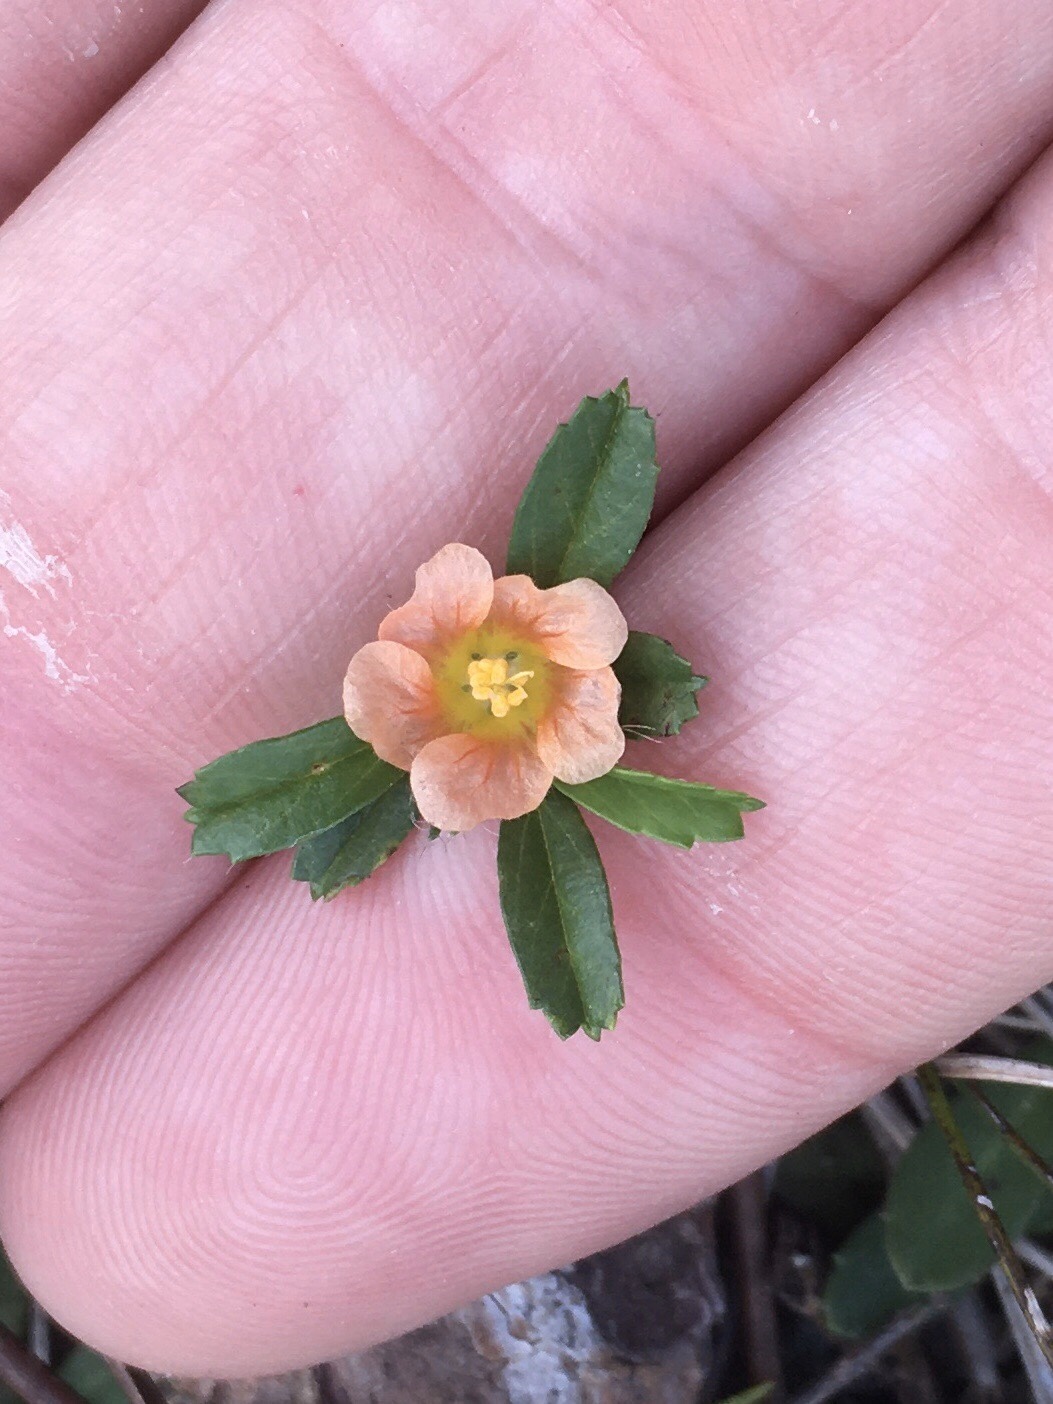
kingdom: Plantae
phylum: Tracheophyta
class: Magnoliopsida
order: Malvales
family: Malvaceae
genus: Sida
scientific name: Sida ciliaris
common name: Bracted fanpetals
